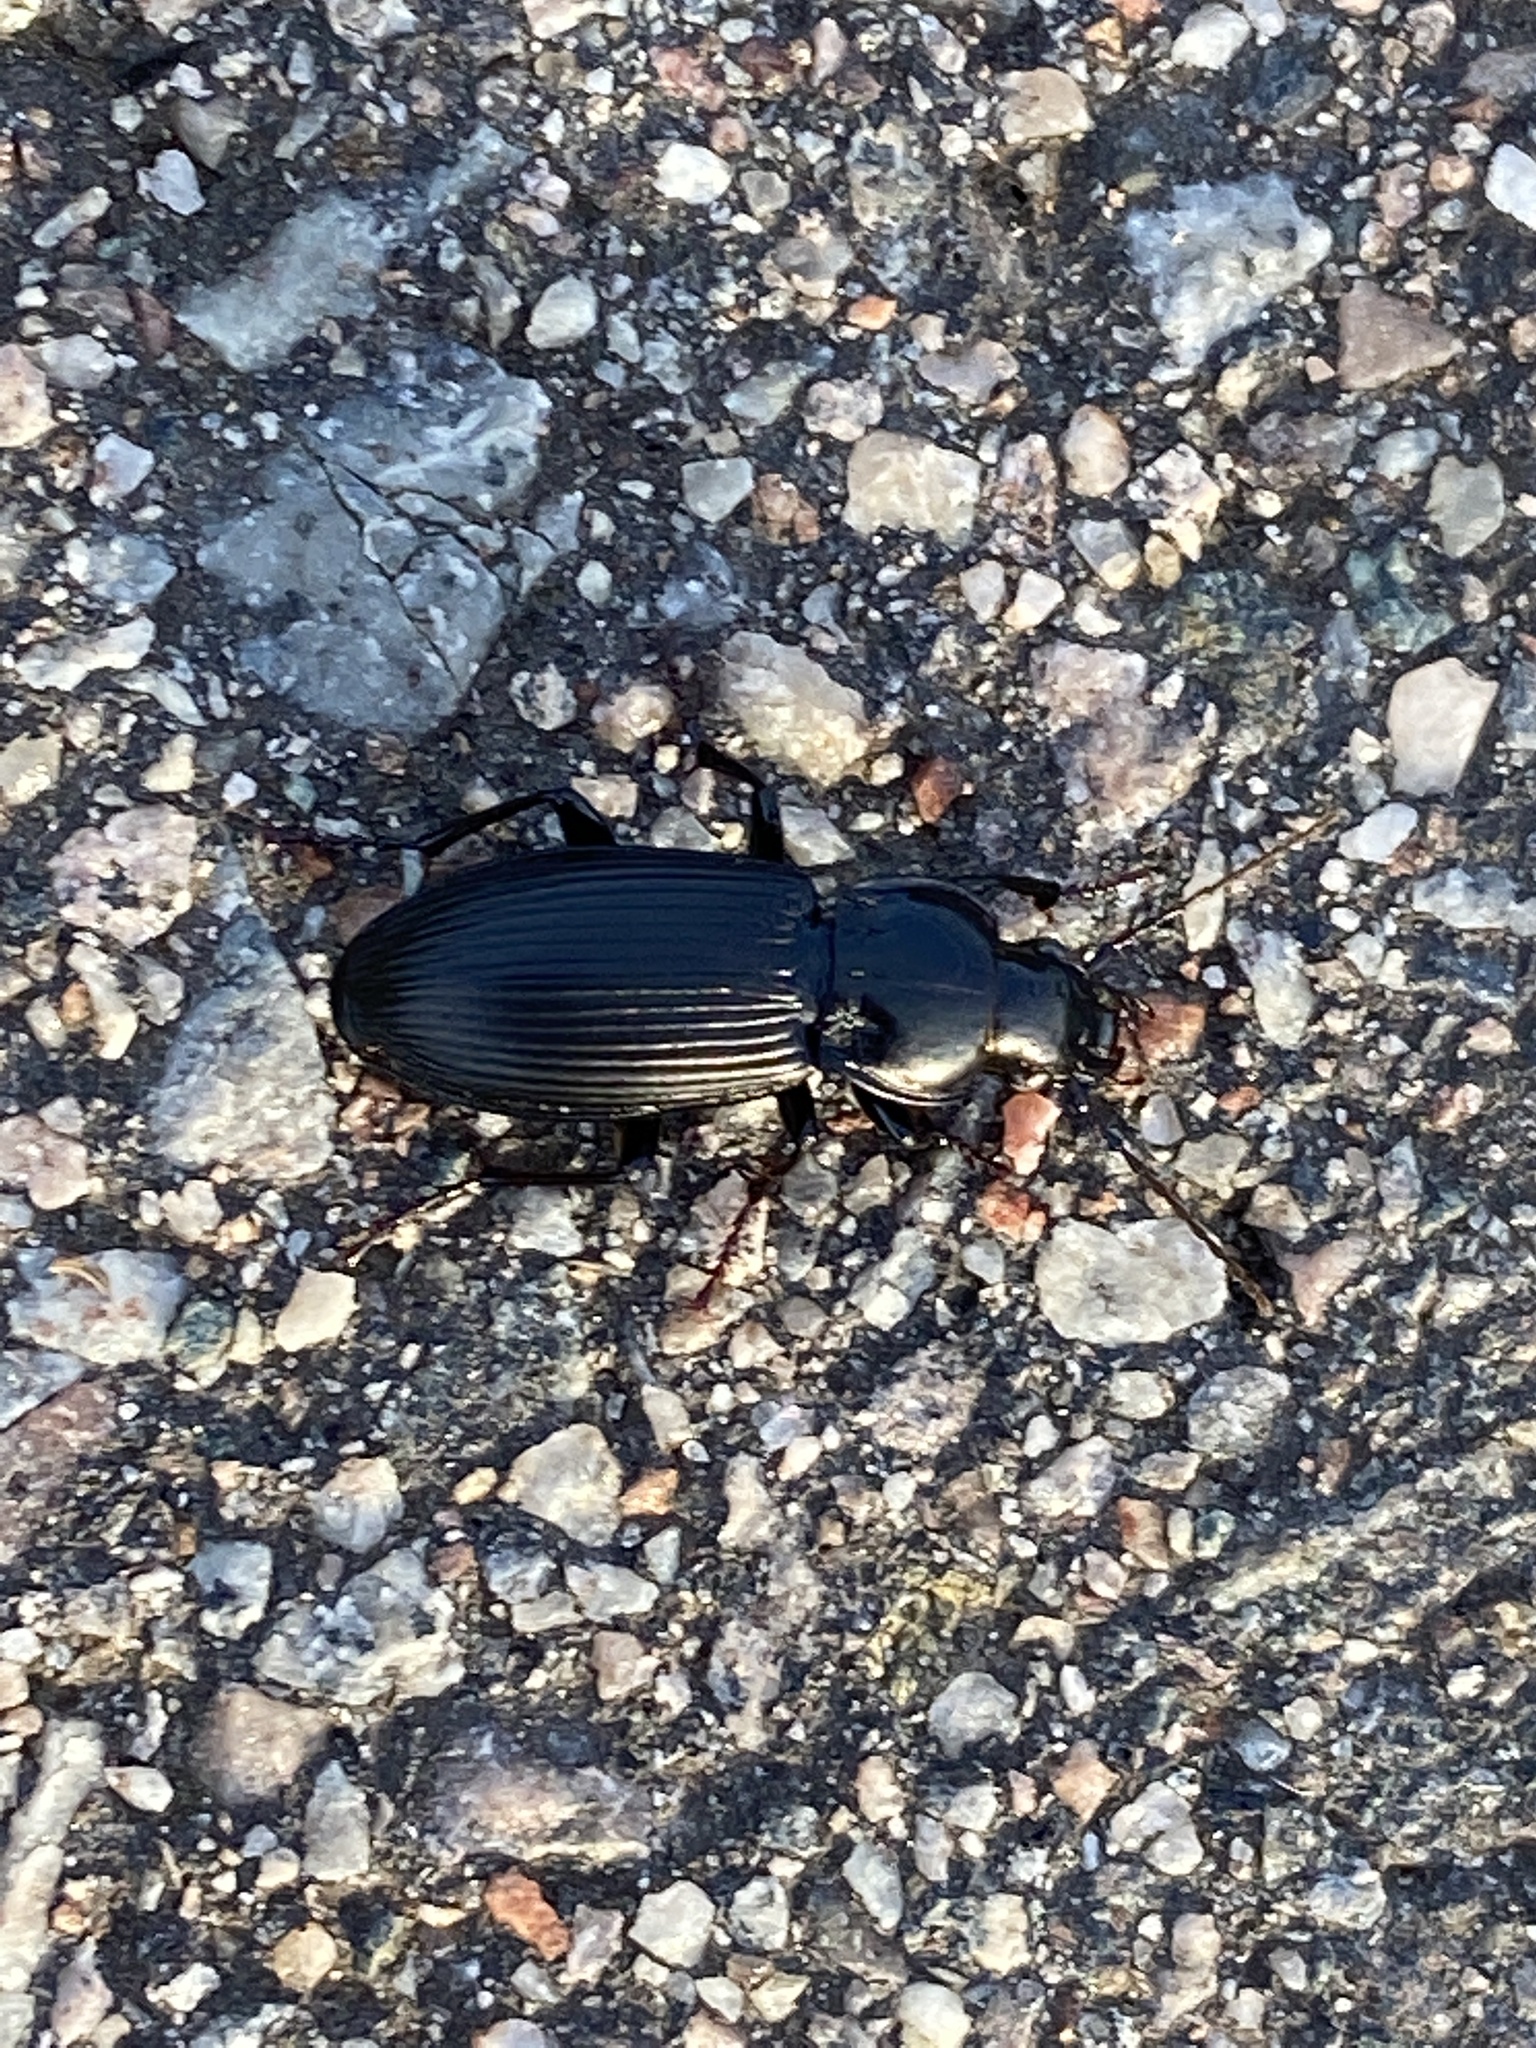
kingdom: Animalia
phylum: Arthropoda
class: Insecta
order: Coleoptera
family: Carabidae
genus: Pterostichus
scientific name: Pterostichus melanarius
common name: European dark harp ground beetle
